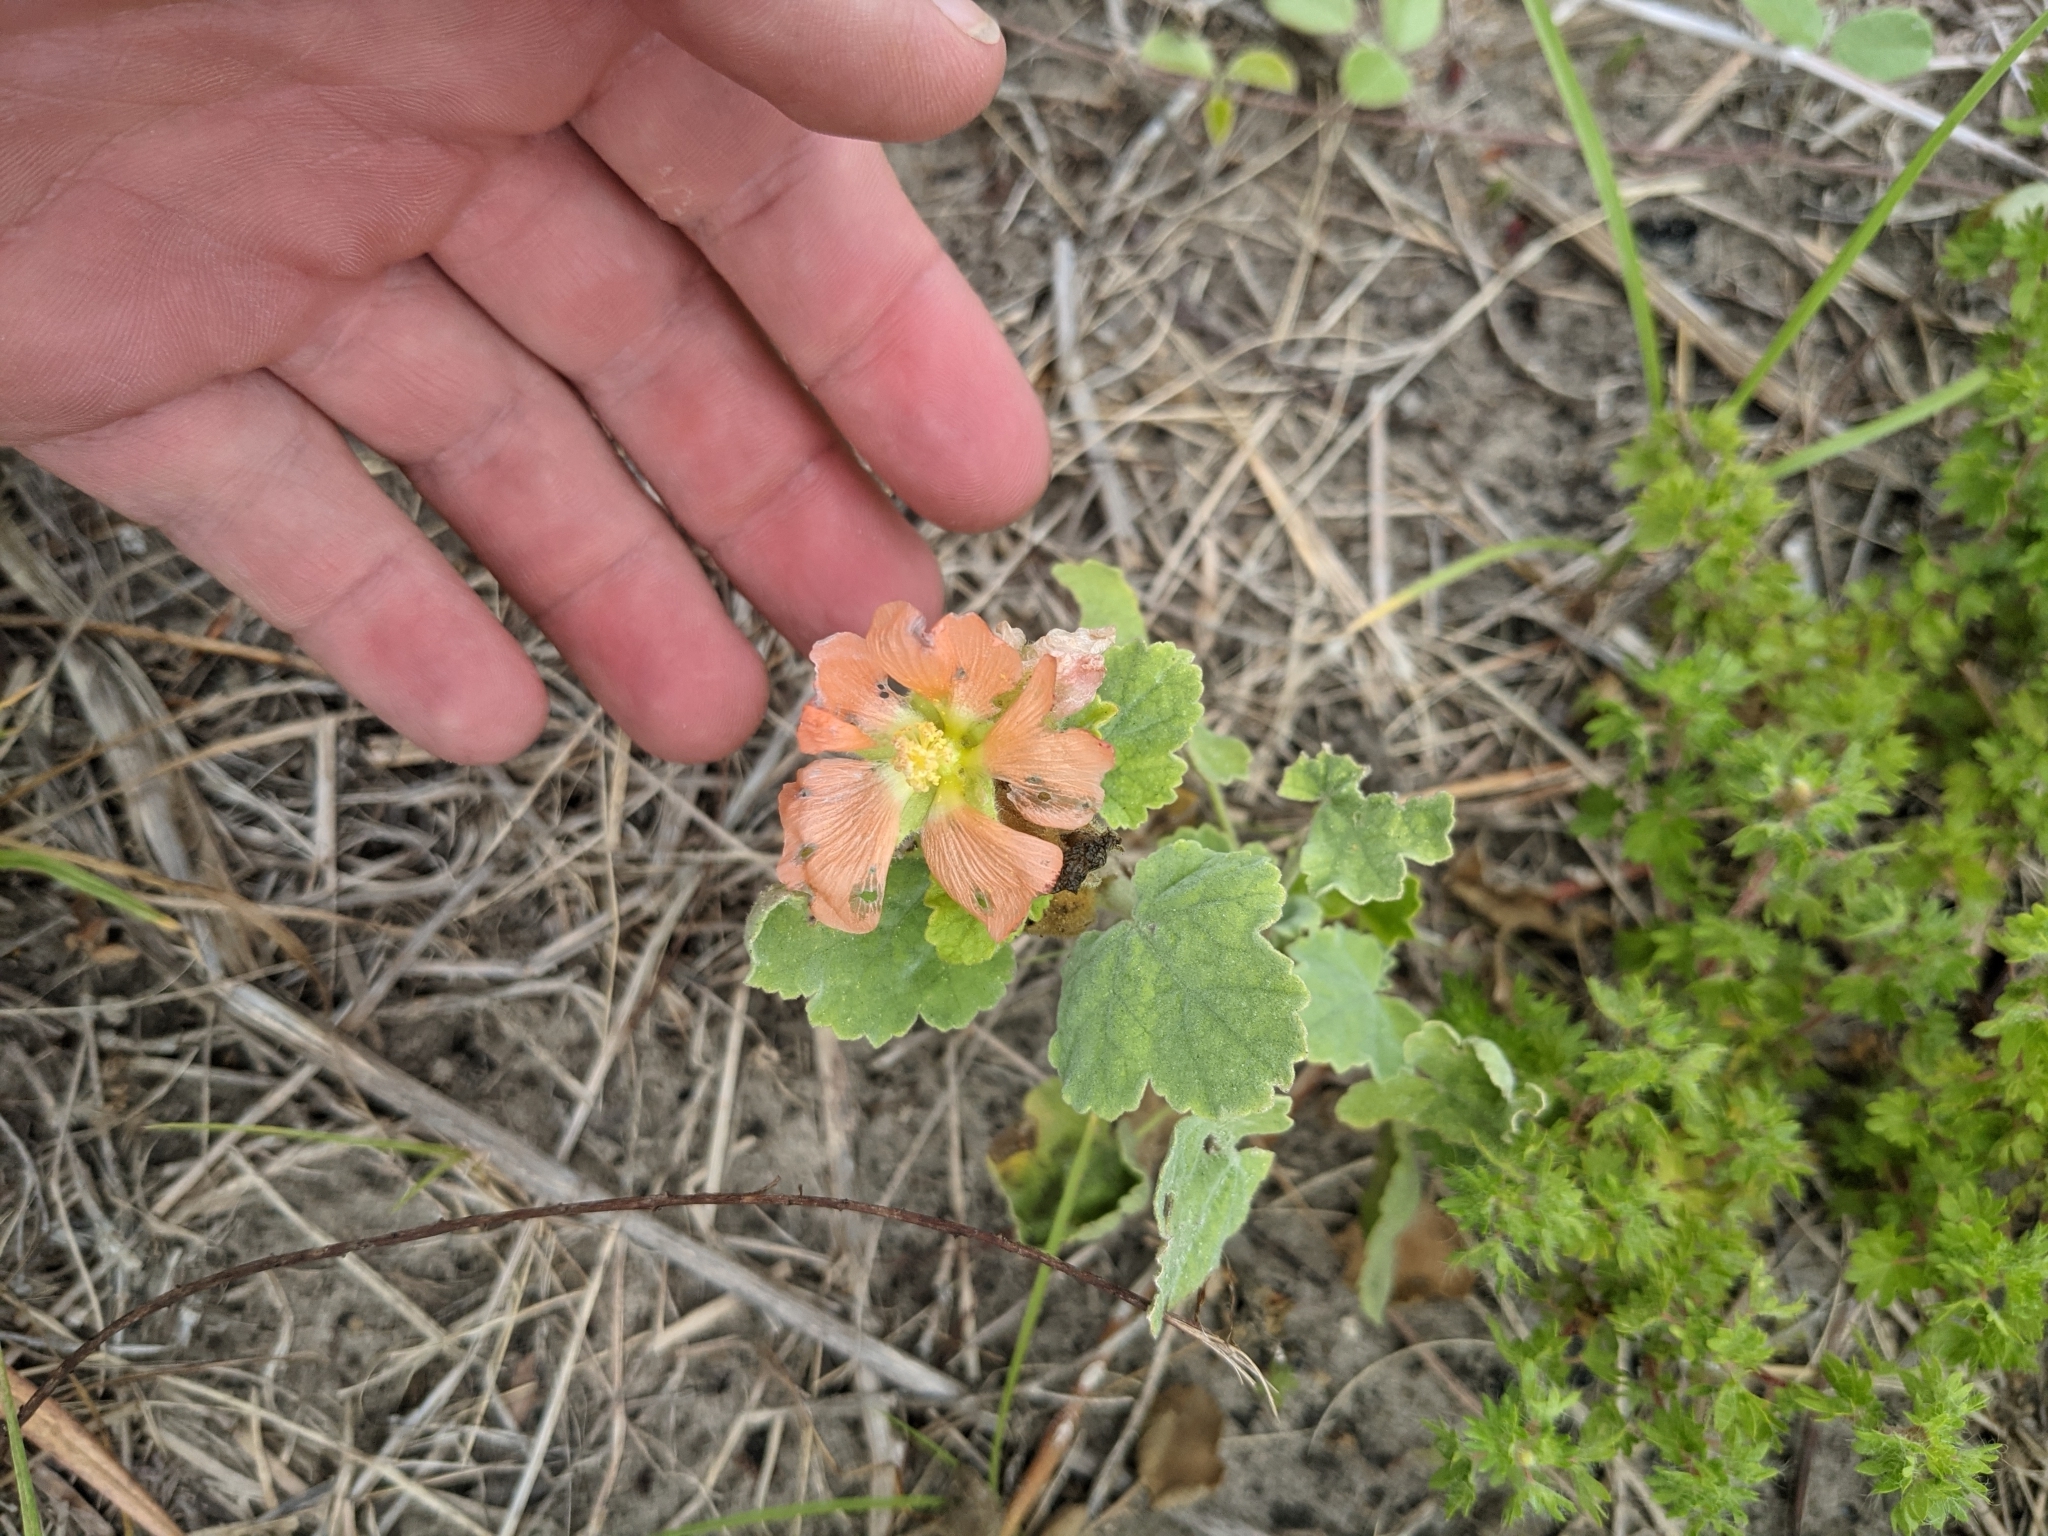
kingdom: Plantae
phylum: Tracheophyta
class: Magnoliopsida
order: Malvales
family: Malvaceae
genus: Sphaeralcea
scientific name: Sphaeralcea lindheimeri
